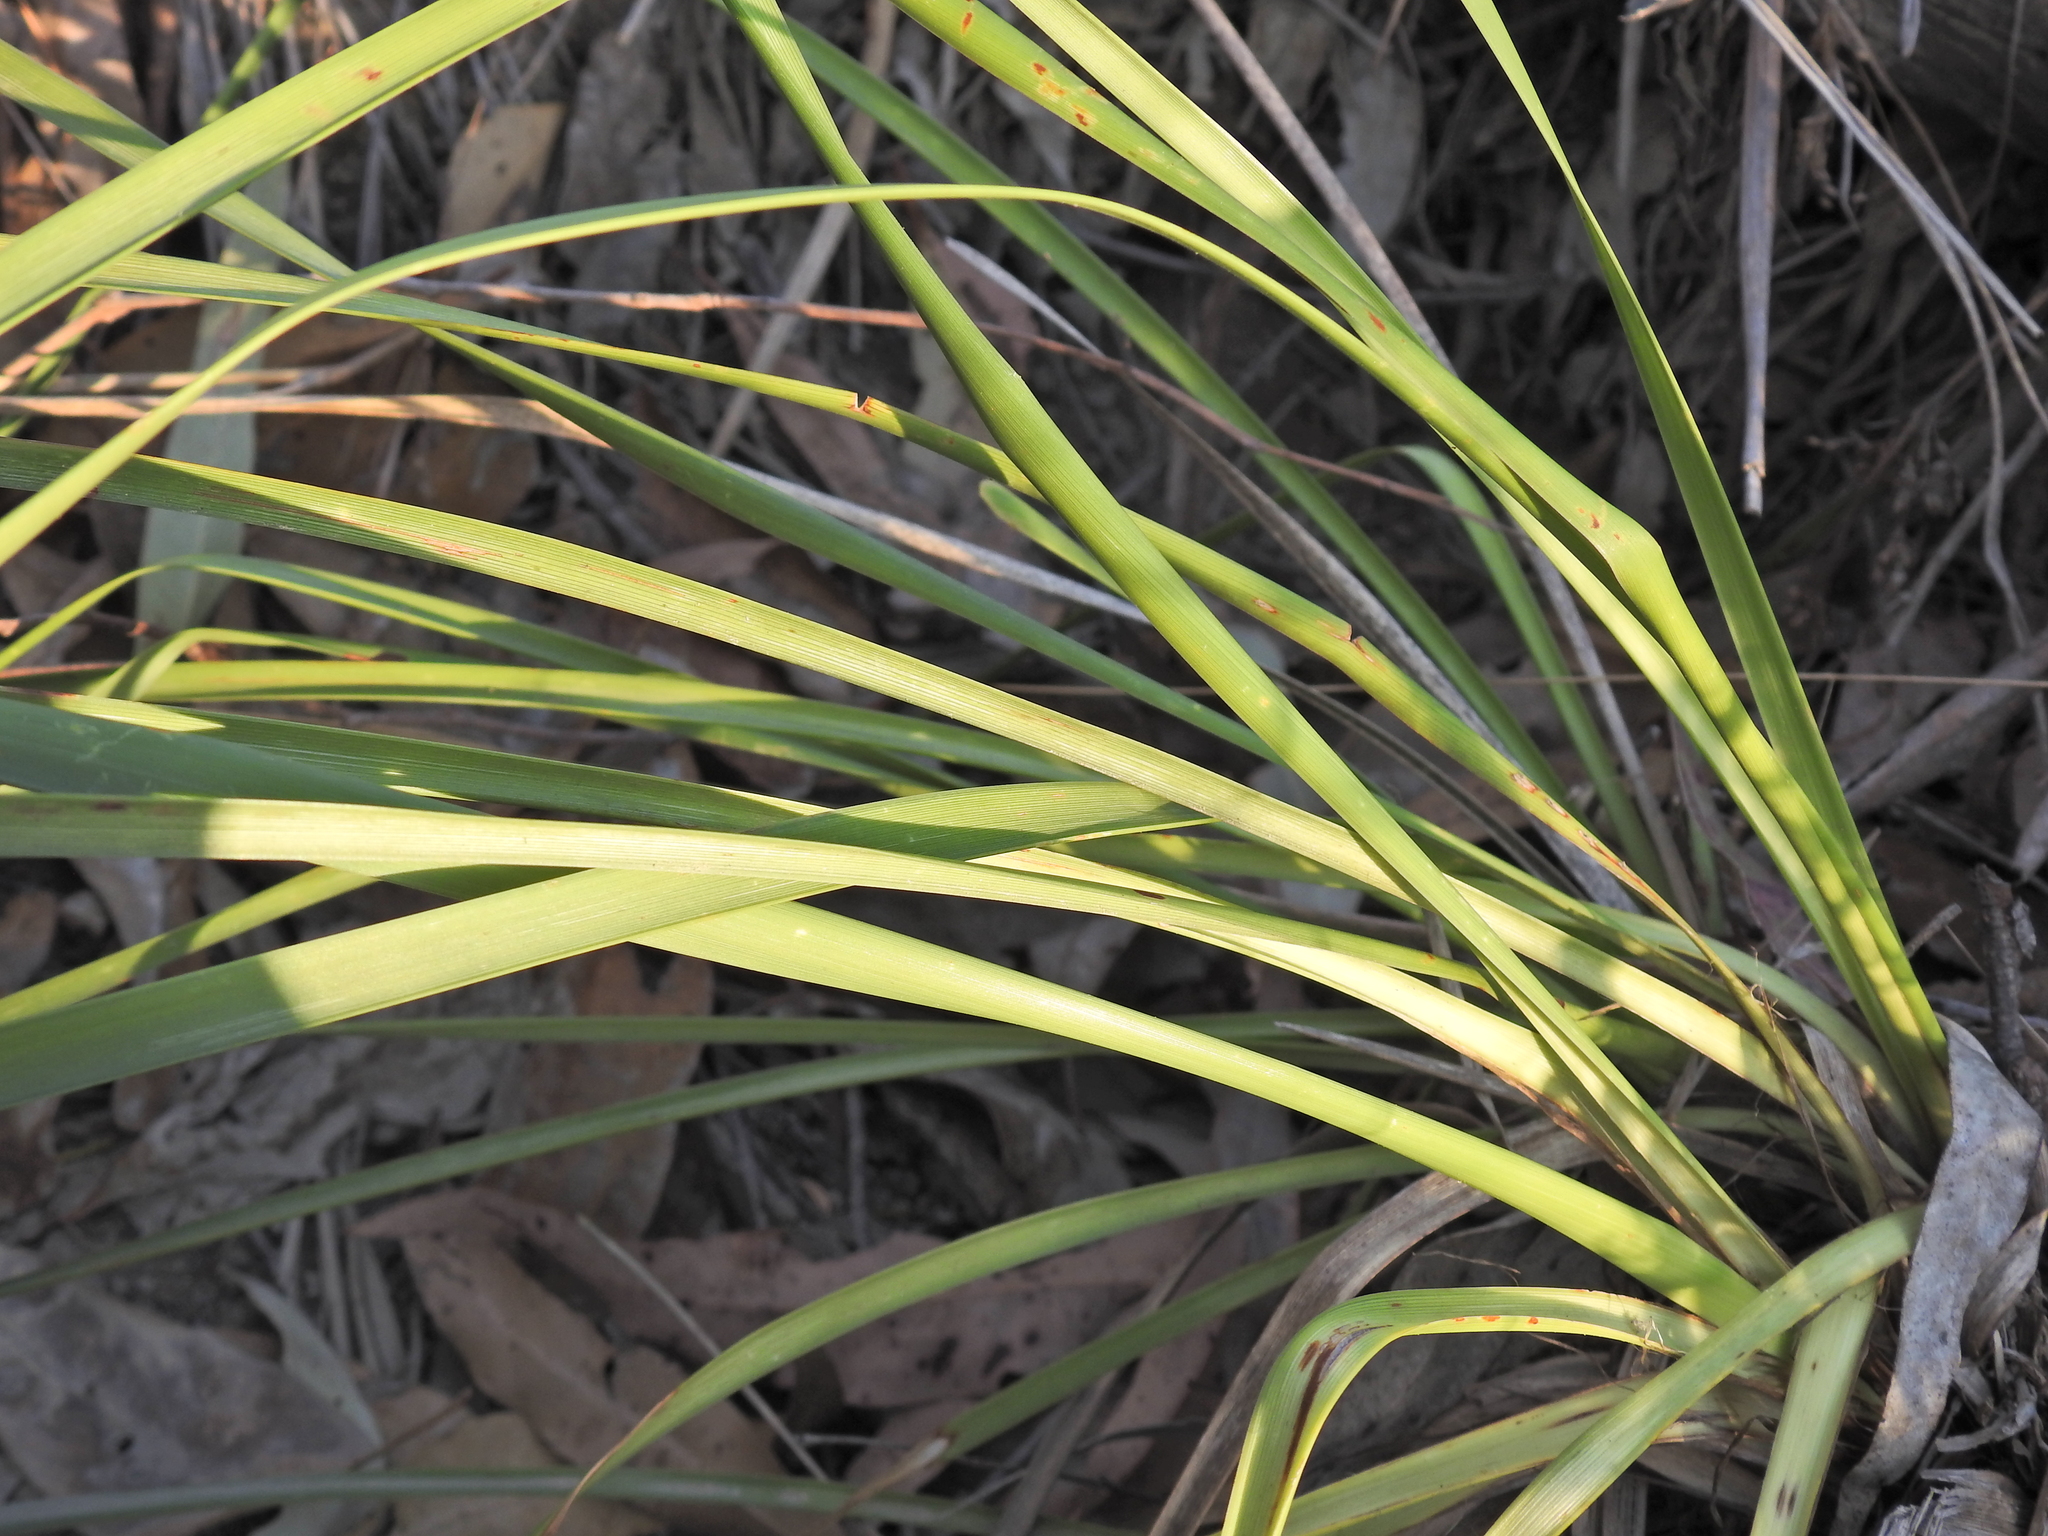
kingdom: Plantae
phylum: Tracheophyta
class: Liliopsida
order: Asparagales
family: Asparagaceae
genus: Lomandra
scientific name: Lomandra longifolia
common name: Longleaf mat-rush
